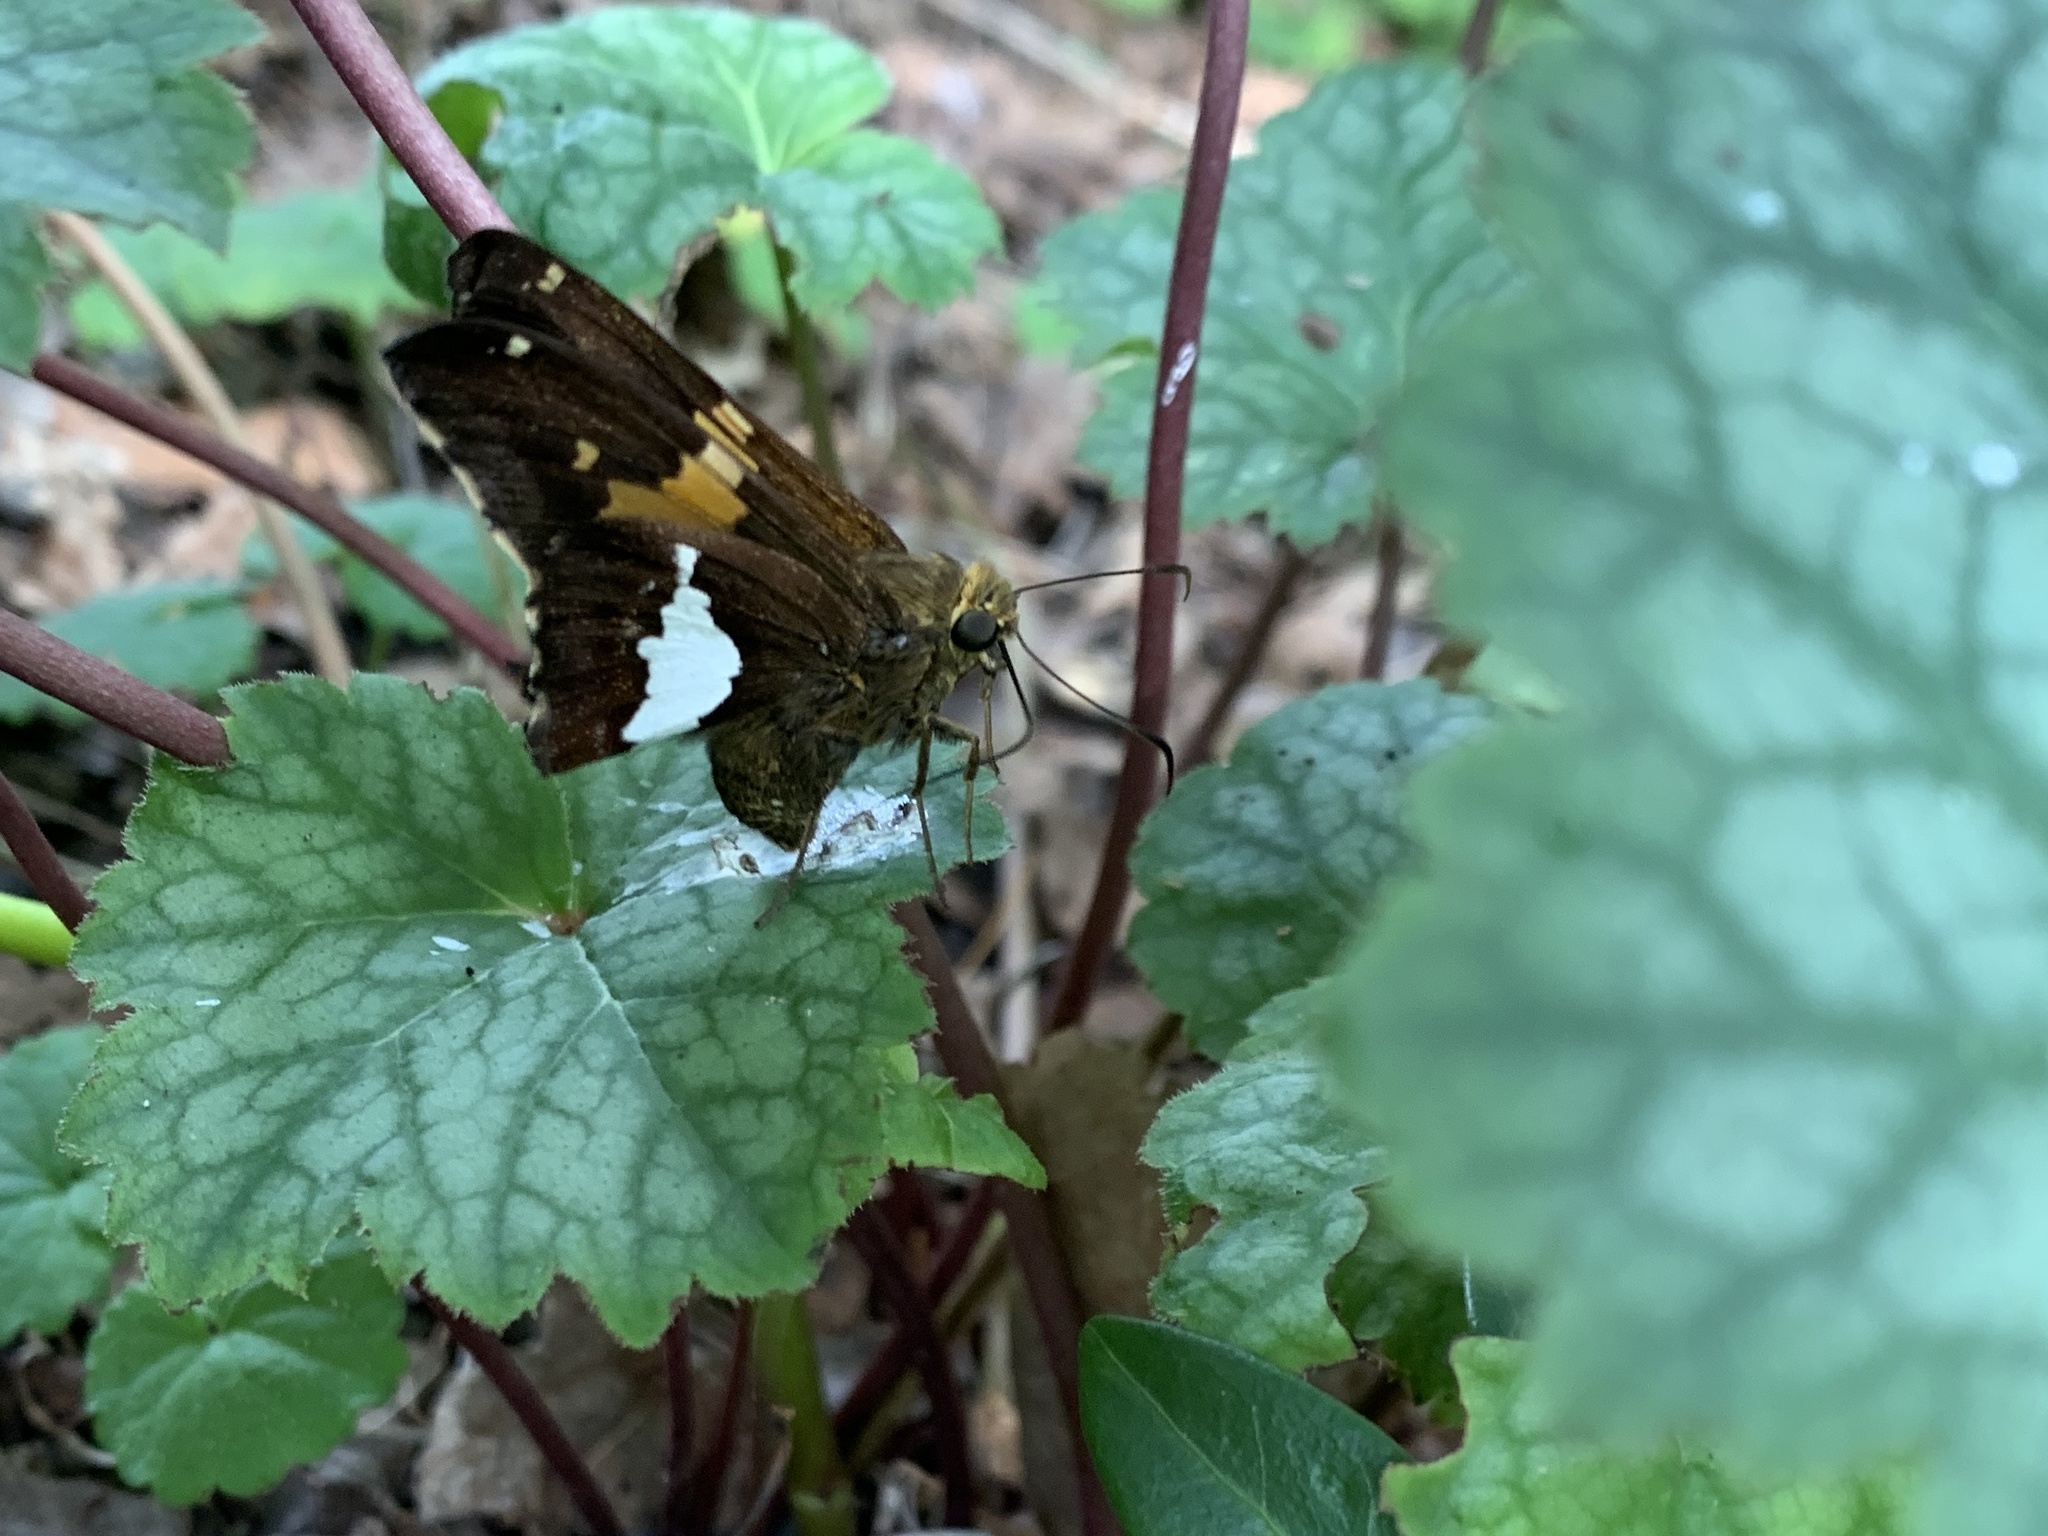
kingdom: Animalia
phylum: Arthropoda
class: Insecta
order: Lepidoptera
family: Hesperiidae
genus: Epargyreus
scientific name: Epargyreus clarus
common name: Silver-spotted skipper
